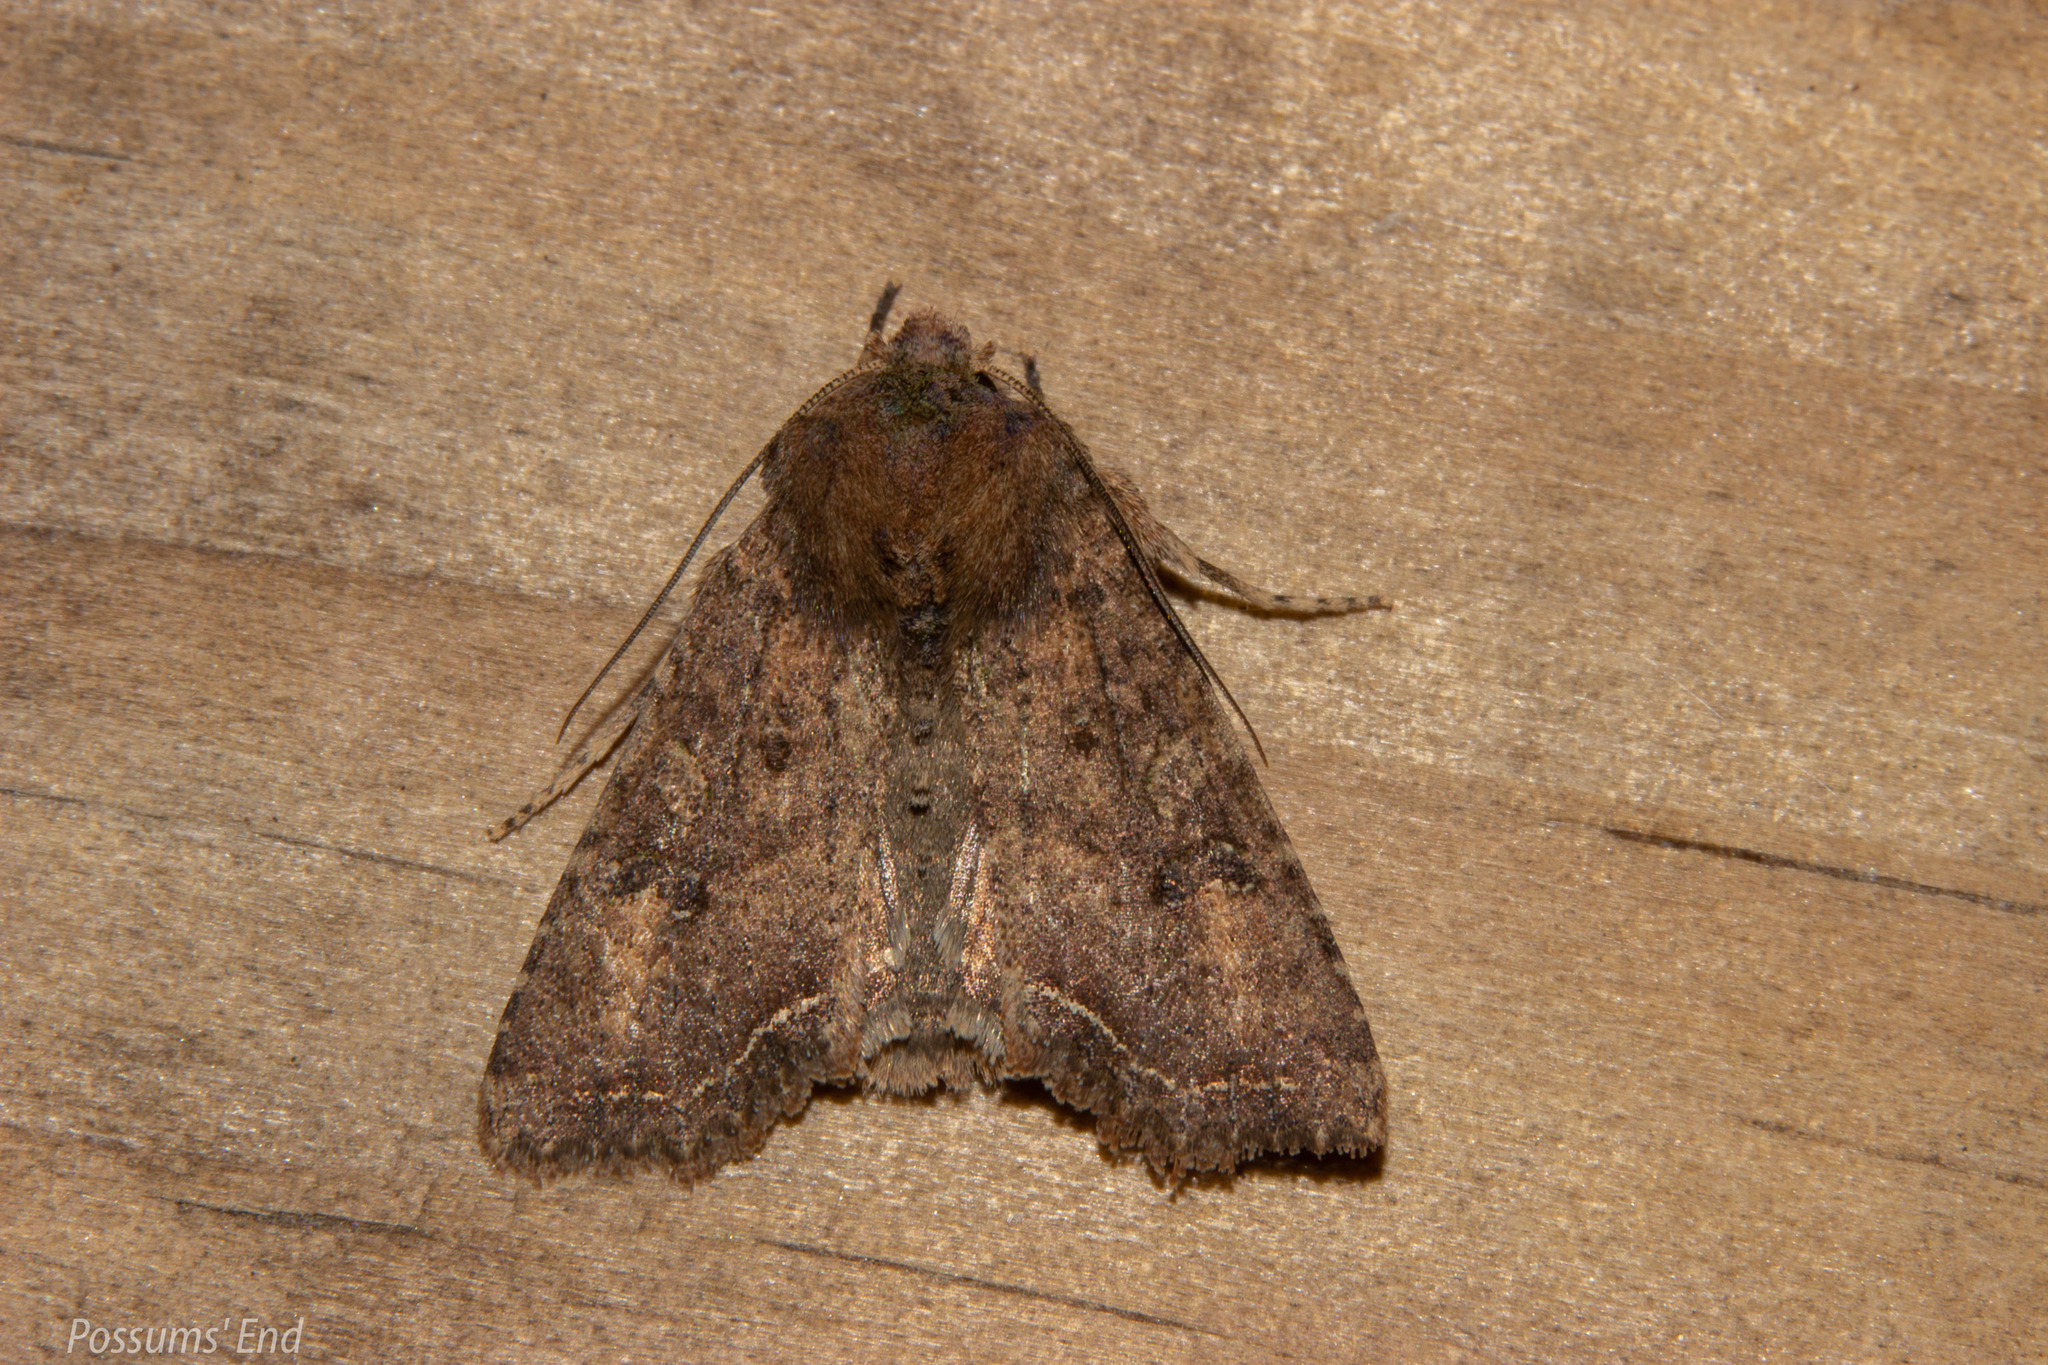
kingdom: Animalia
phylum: Arthropoda
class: Insecta
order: Lepidoptera
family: Noctuidae
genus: Meterana
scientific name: Meterana inchoata
